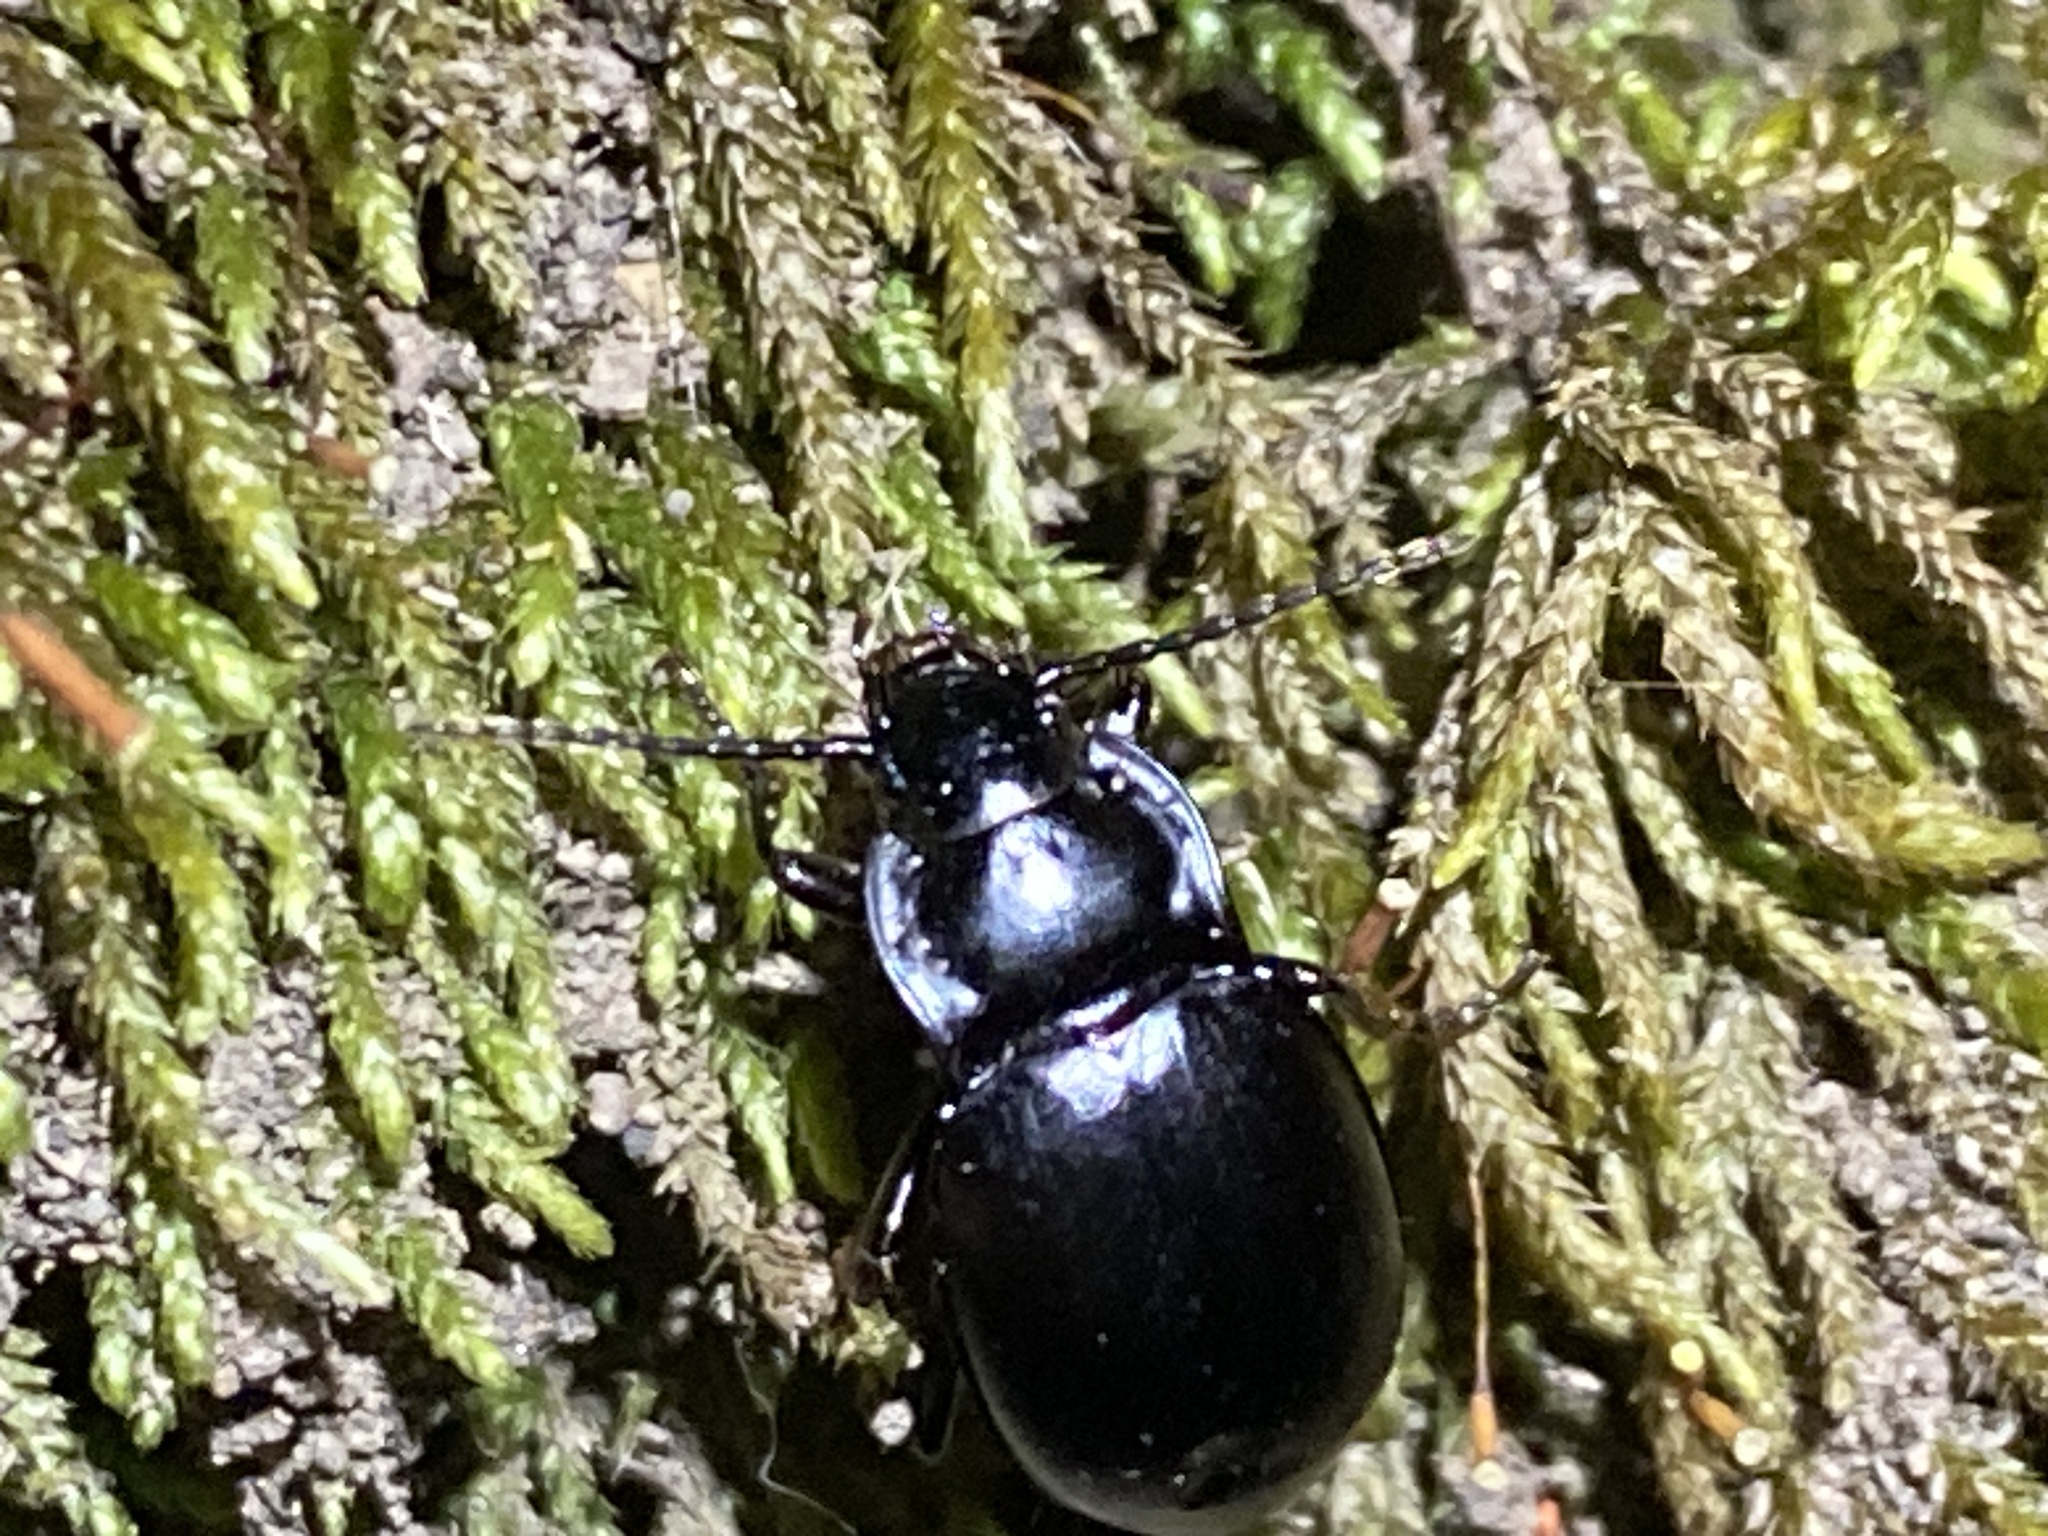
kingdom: Animalia
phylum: Arthropoda
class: Insecta
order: Coleoptera
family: Carabidae
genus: Metrius
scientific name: Metrius contractus
